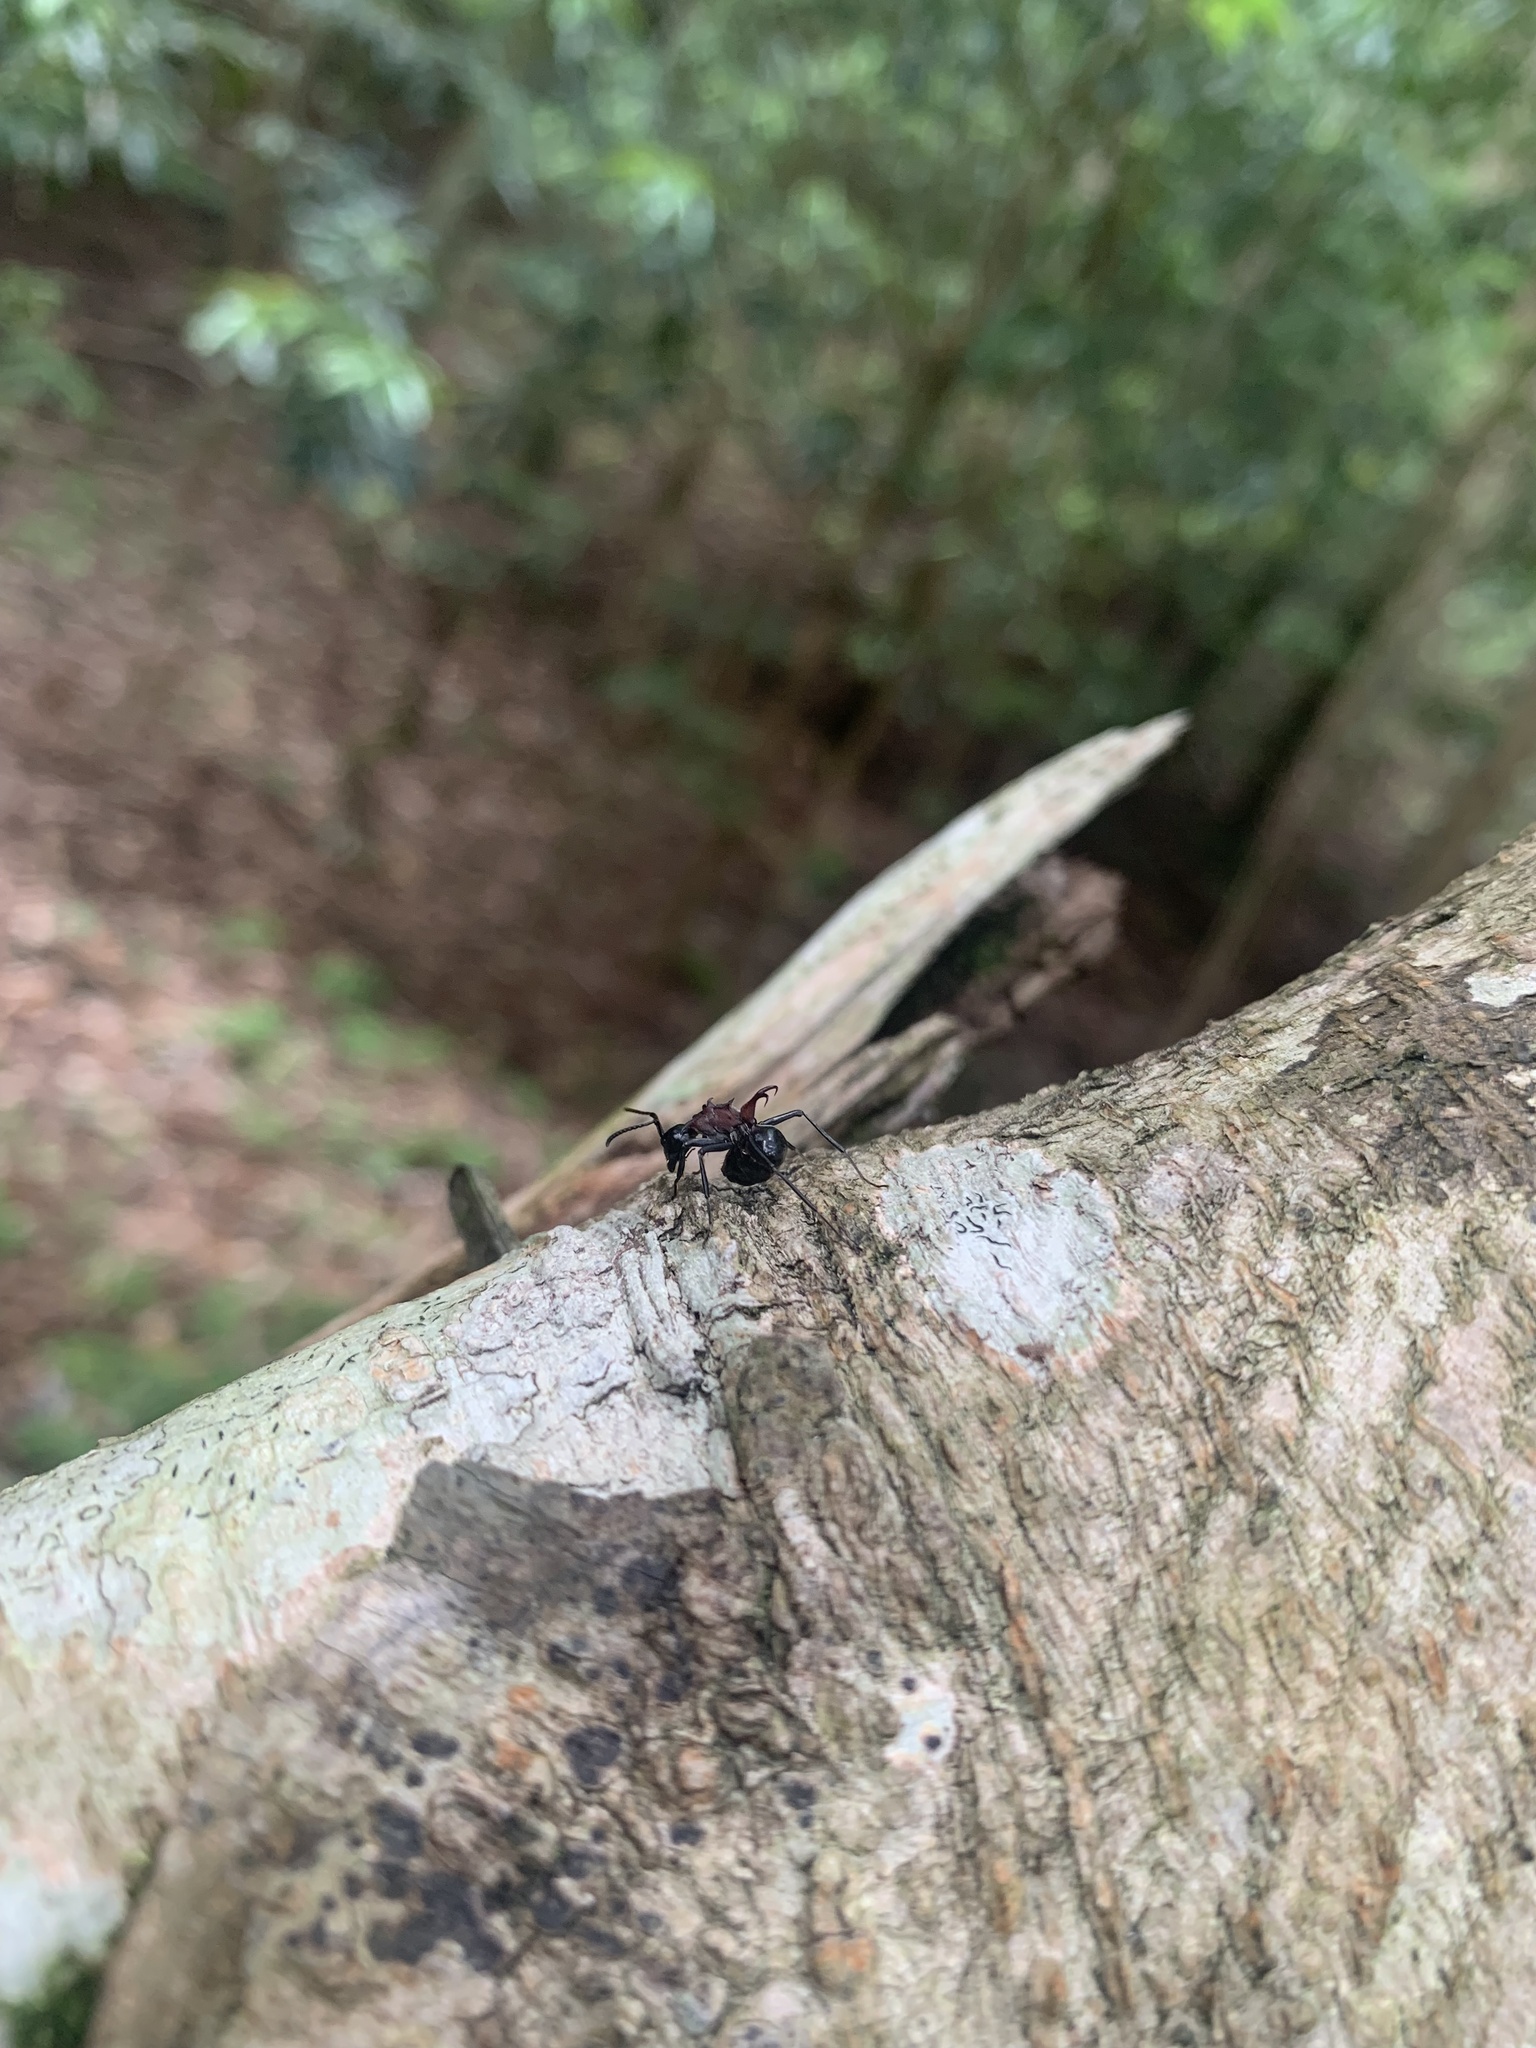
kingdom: Animalia
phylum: Arthropoda
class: Insecta
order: Hymenoptera
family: Formicidae
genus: Polyrhachis
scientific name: Polyrhachis lamellidens
